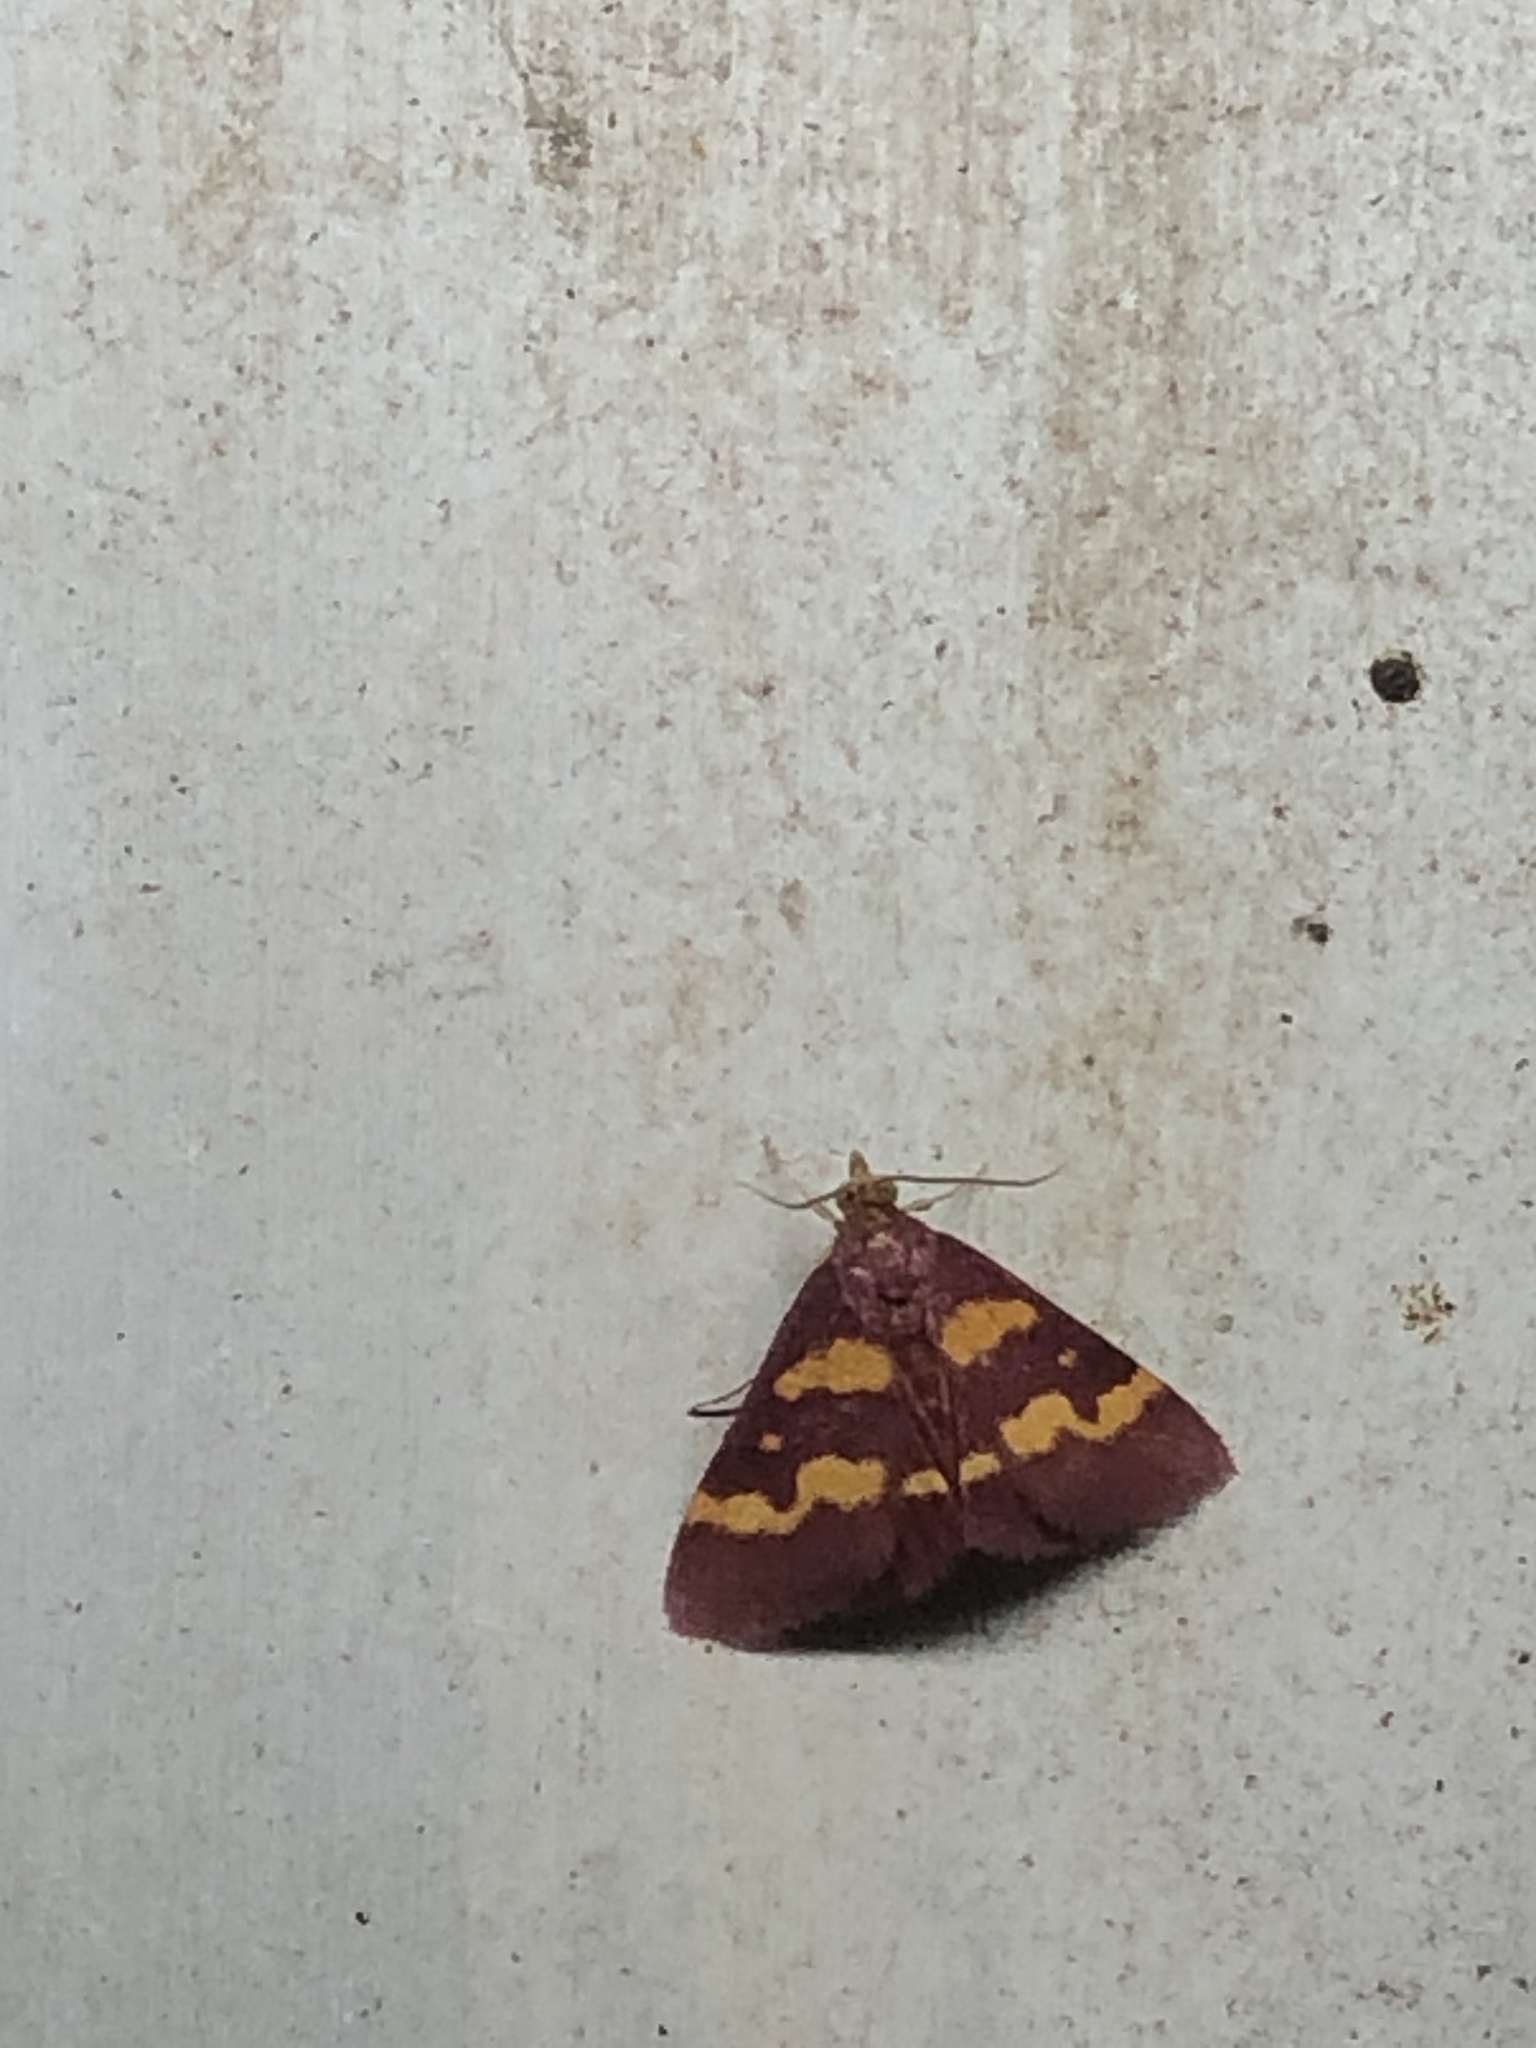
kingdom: Animalia
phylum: Arthropoda
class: Insecta
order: Lepidoptera
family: Crambidae
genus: Pyrausta
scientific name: Pyrausta tyralis
